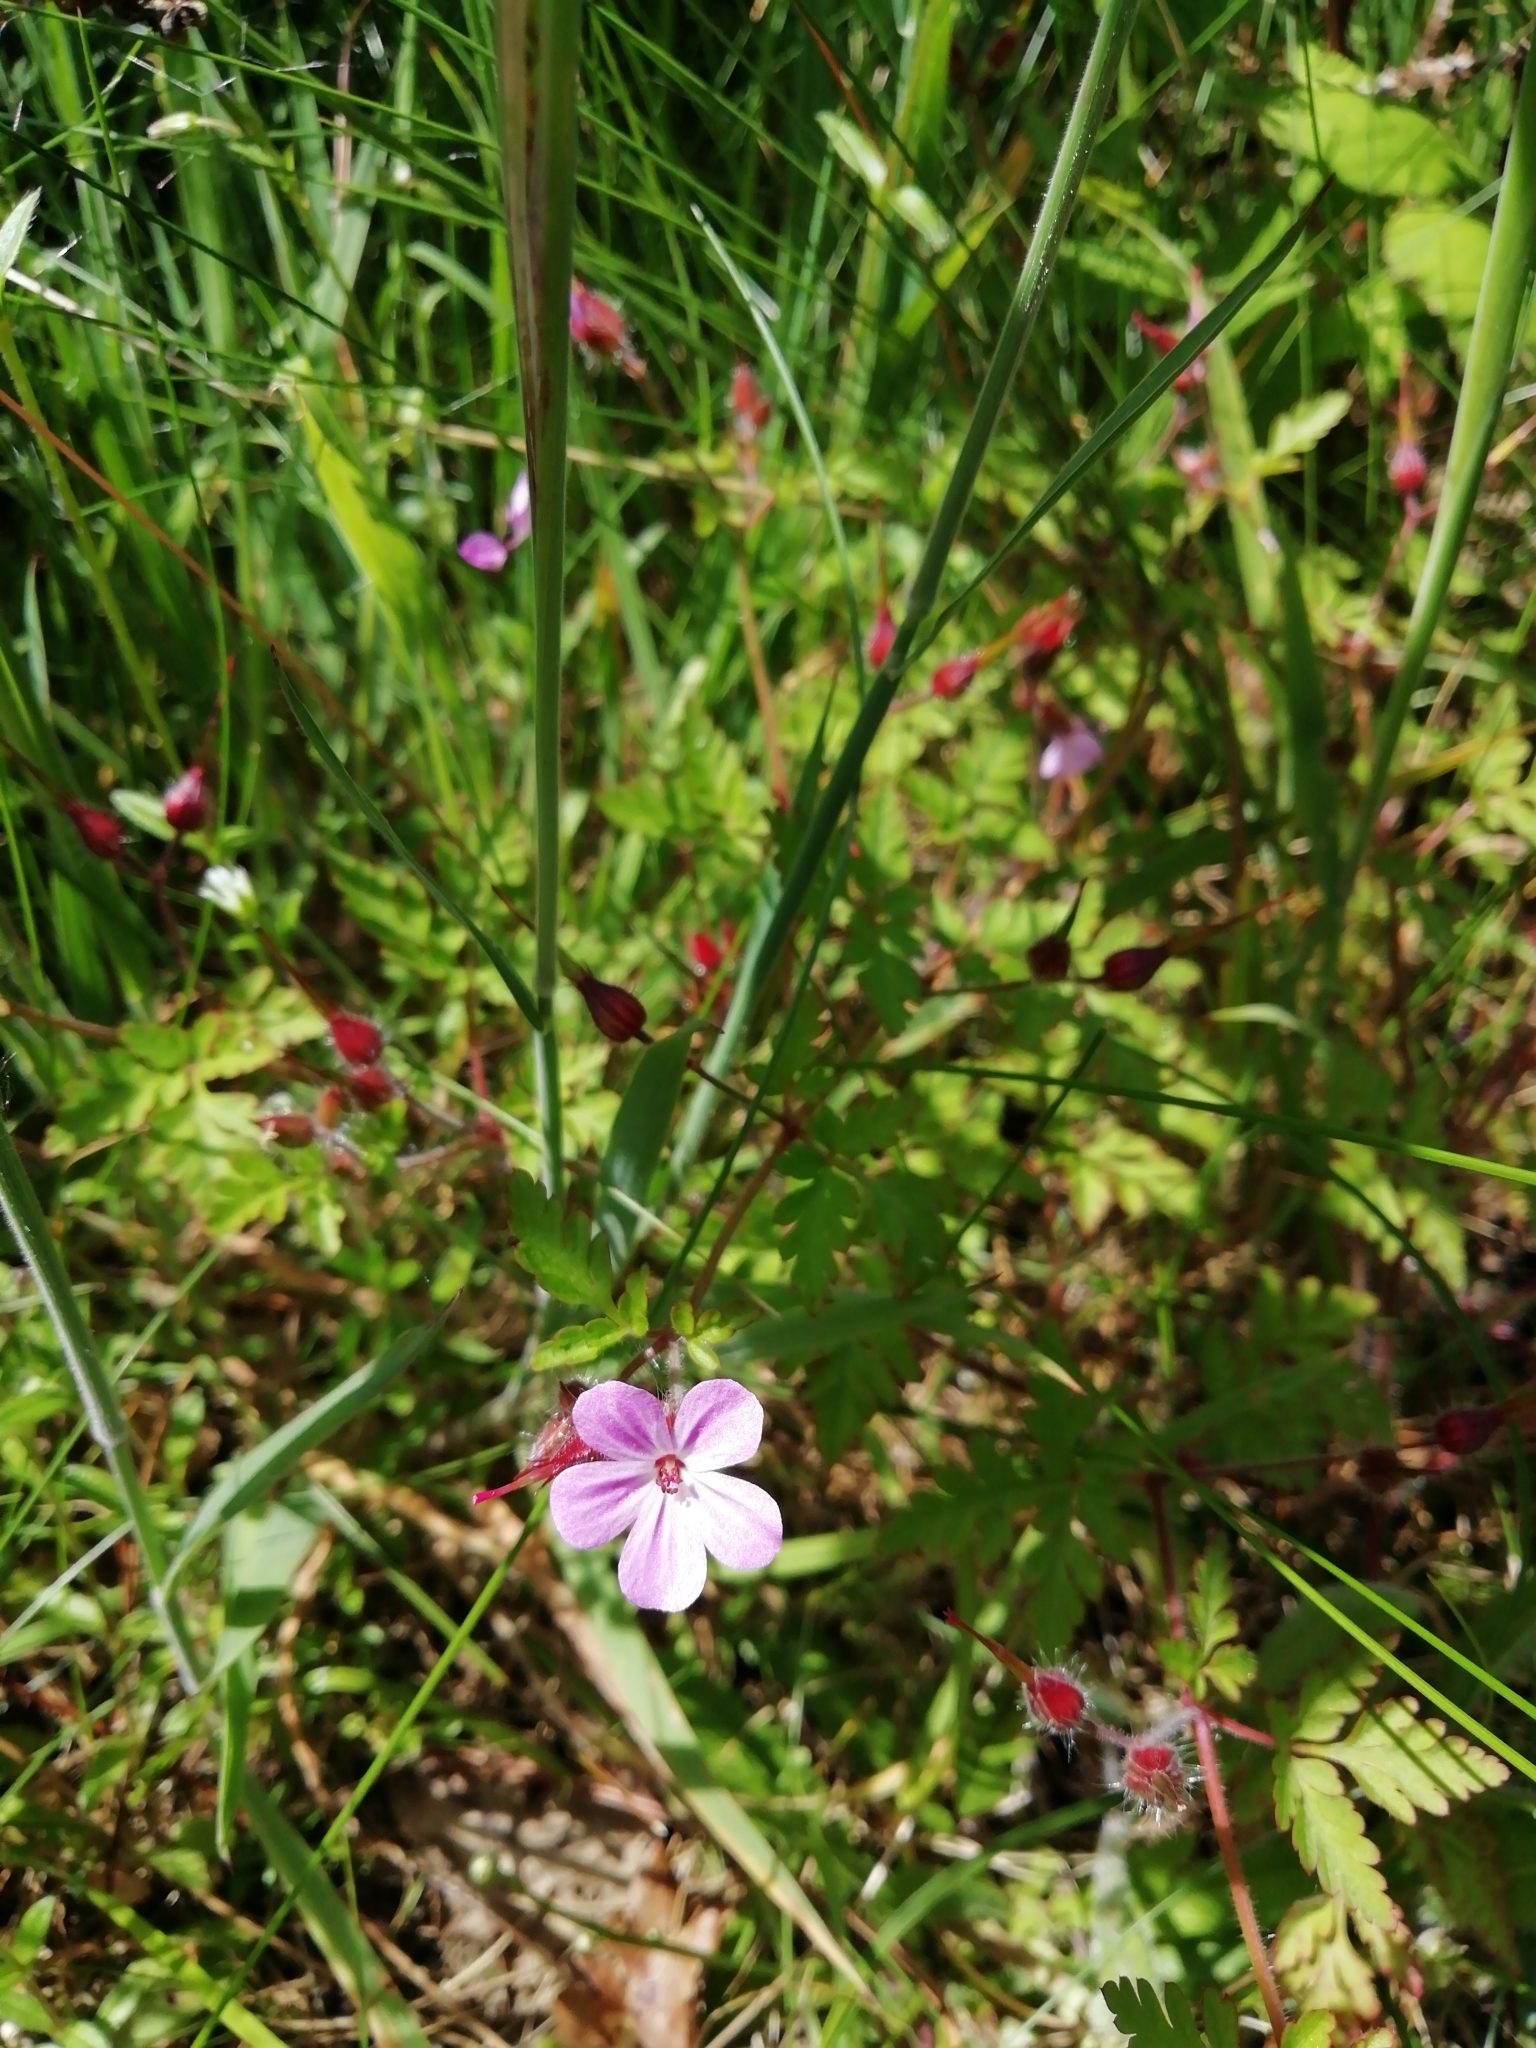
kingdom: Plantae
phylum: Tracheophyta
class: Magnoliopsida
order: Geraniales
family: Geraniaceae
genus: Geranium
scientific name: Geranium robertianum
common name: Herb-robert
